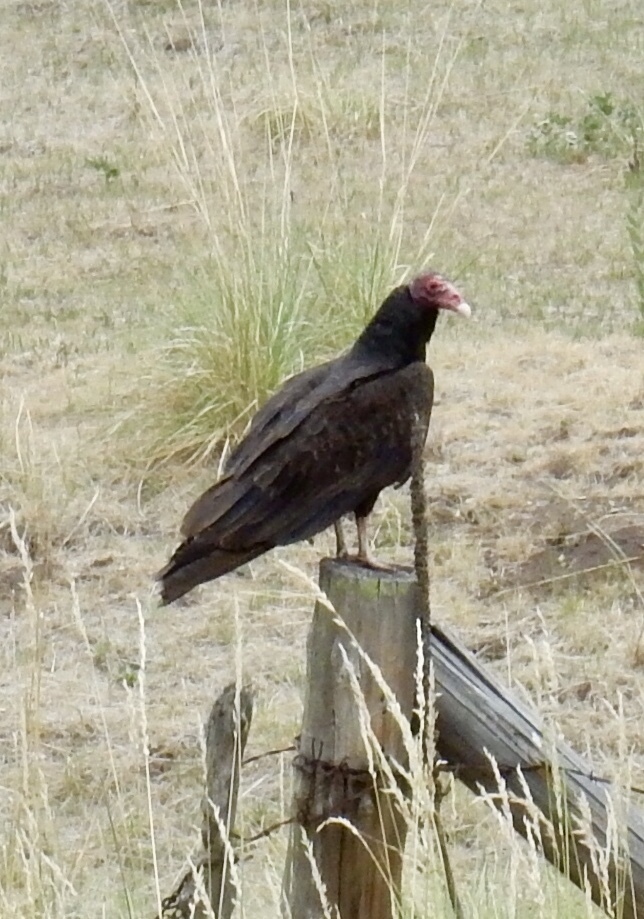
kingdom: Animalia
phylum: Chordata
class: Aves
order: Accipitriformes
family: Cathartidae
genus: Cathartes
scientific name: Cathartes aura
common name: Turkey vulture
